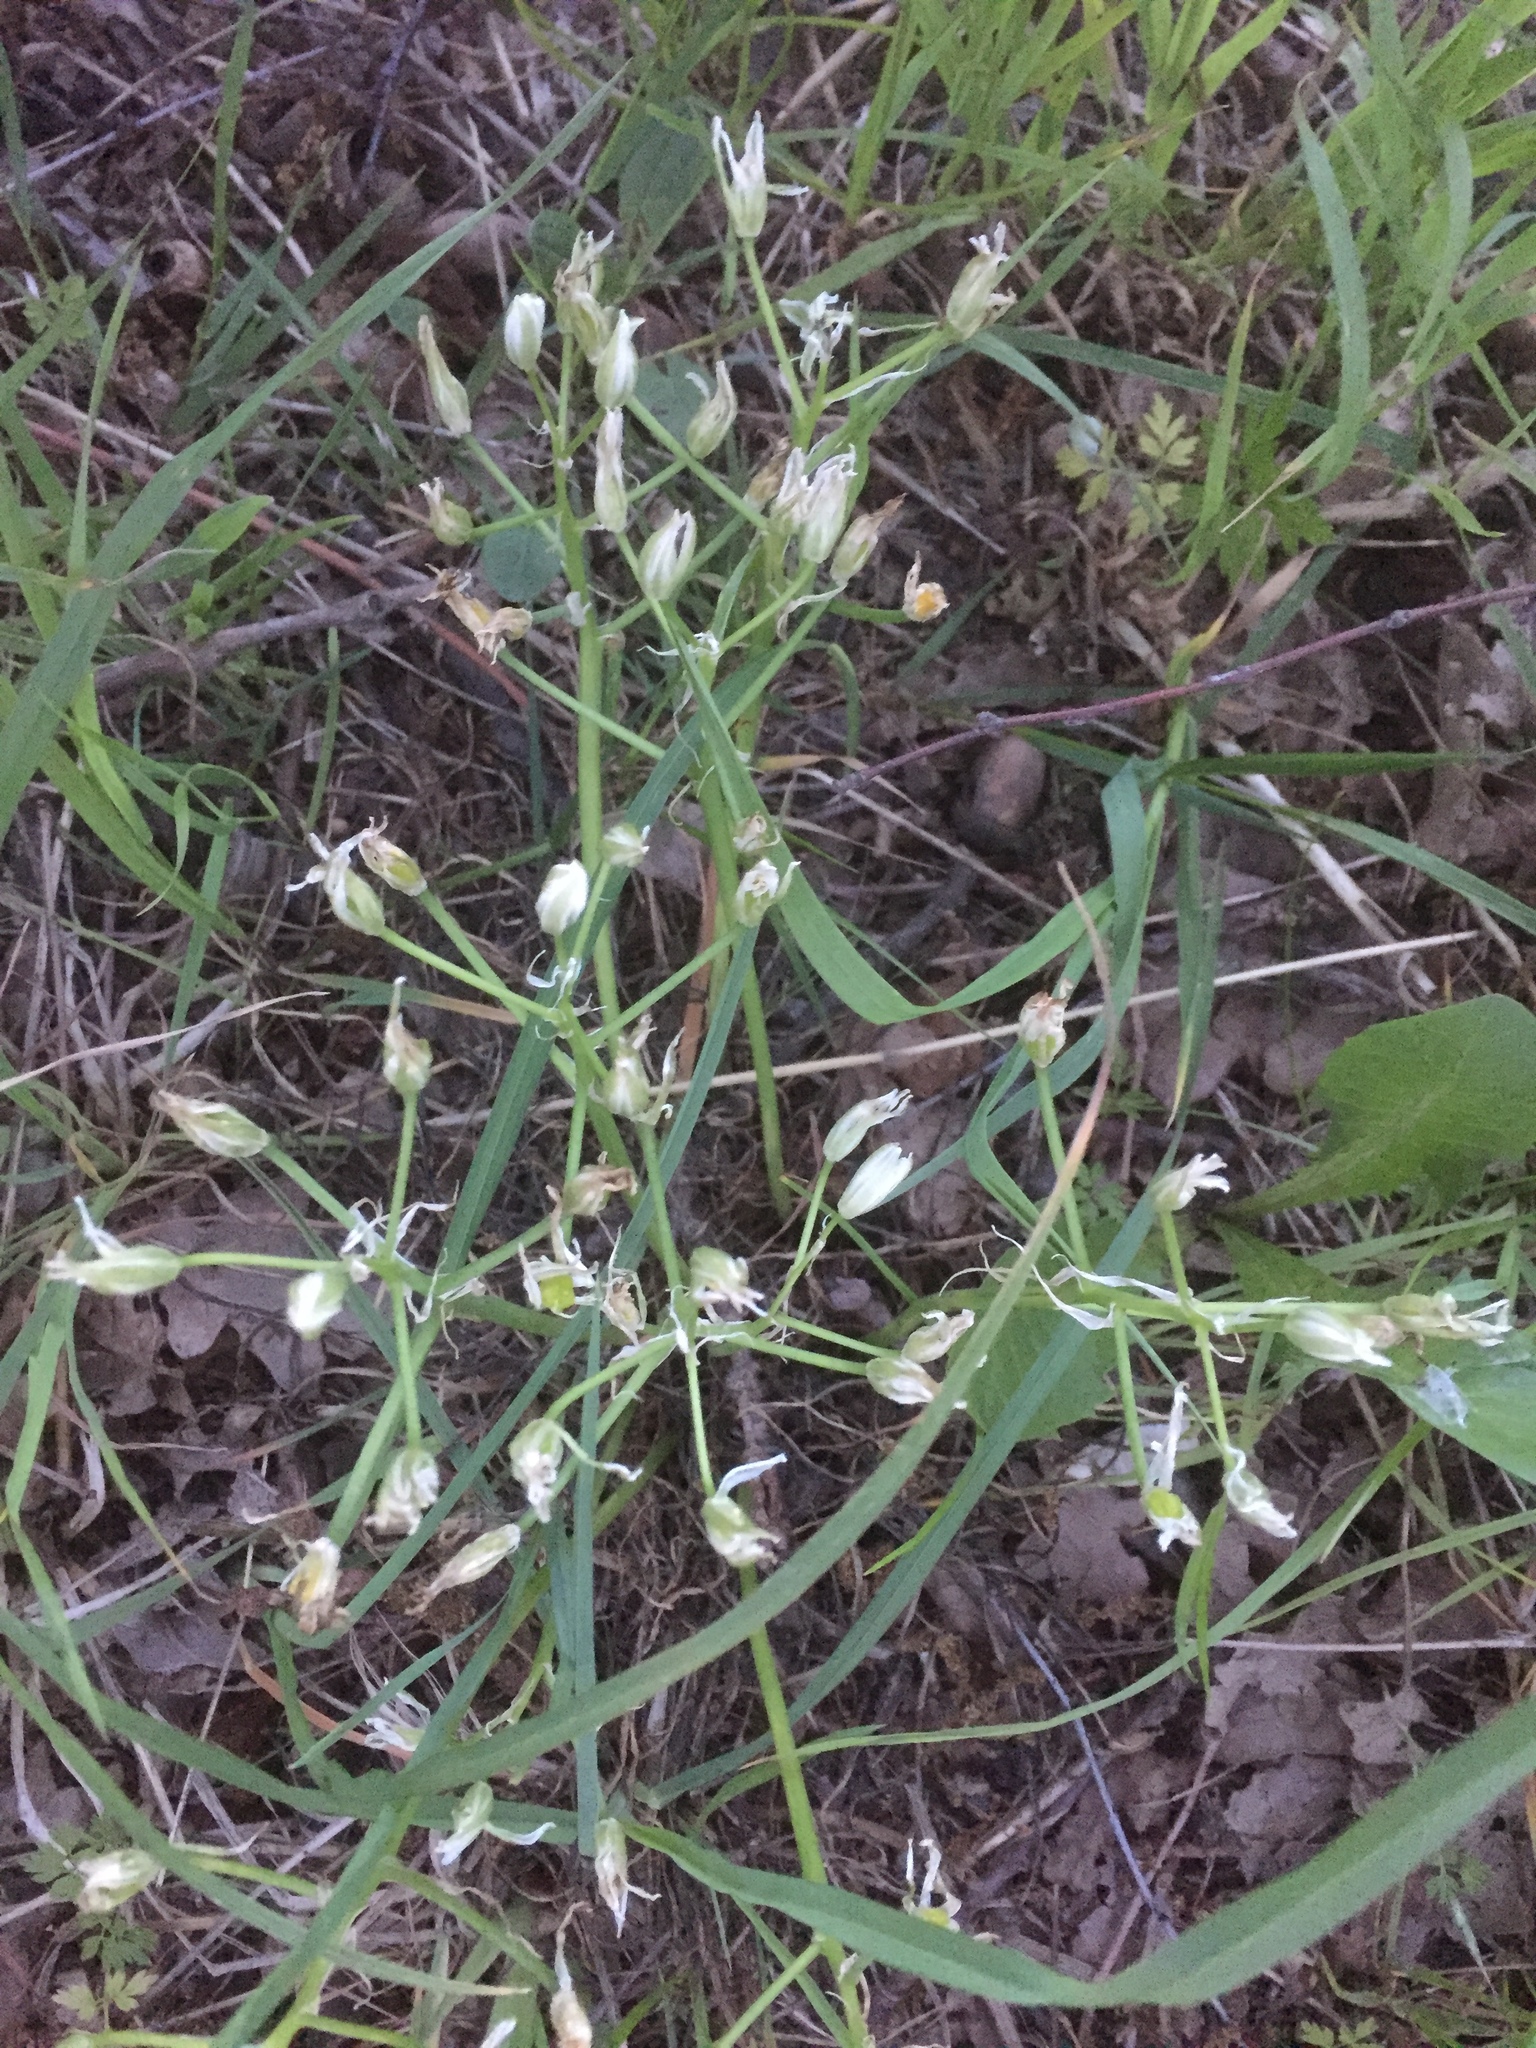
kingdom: Plantae
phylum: Tracheophyta
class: Liliopsida
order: Asparagales
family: Asparagaceae
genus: Ornithogalum
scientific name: Ornithogalum umbellatum
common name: Garden star-of-bethlehem
